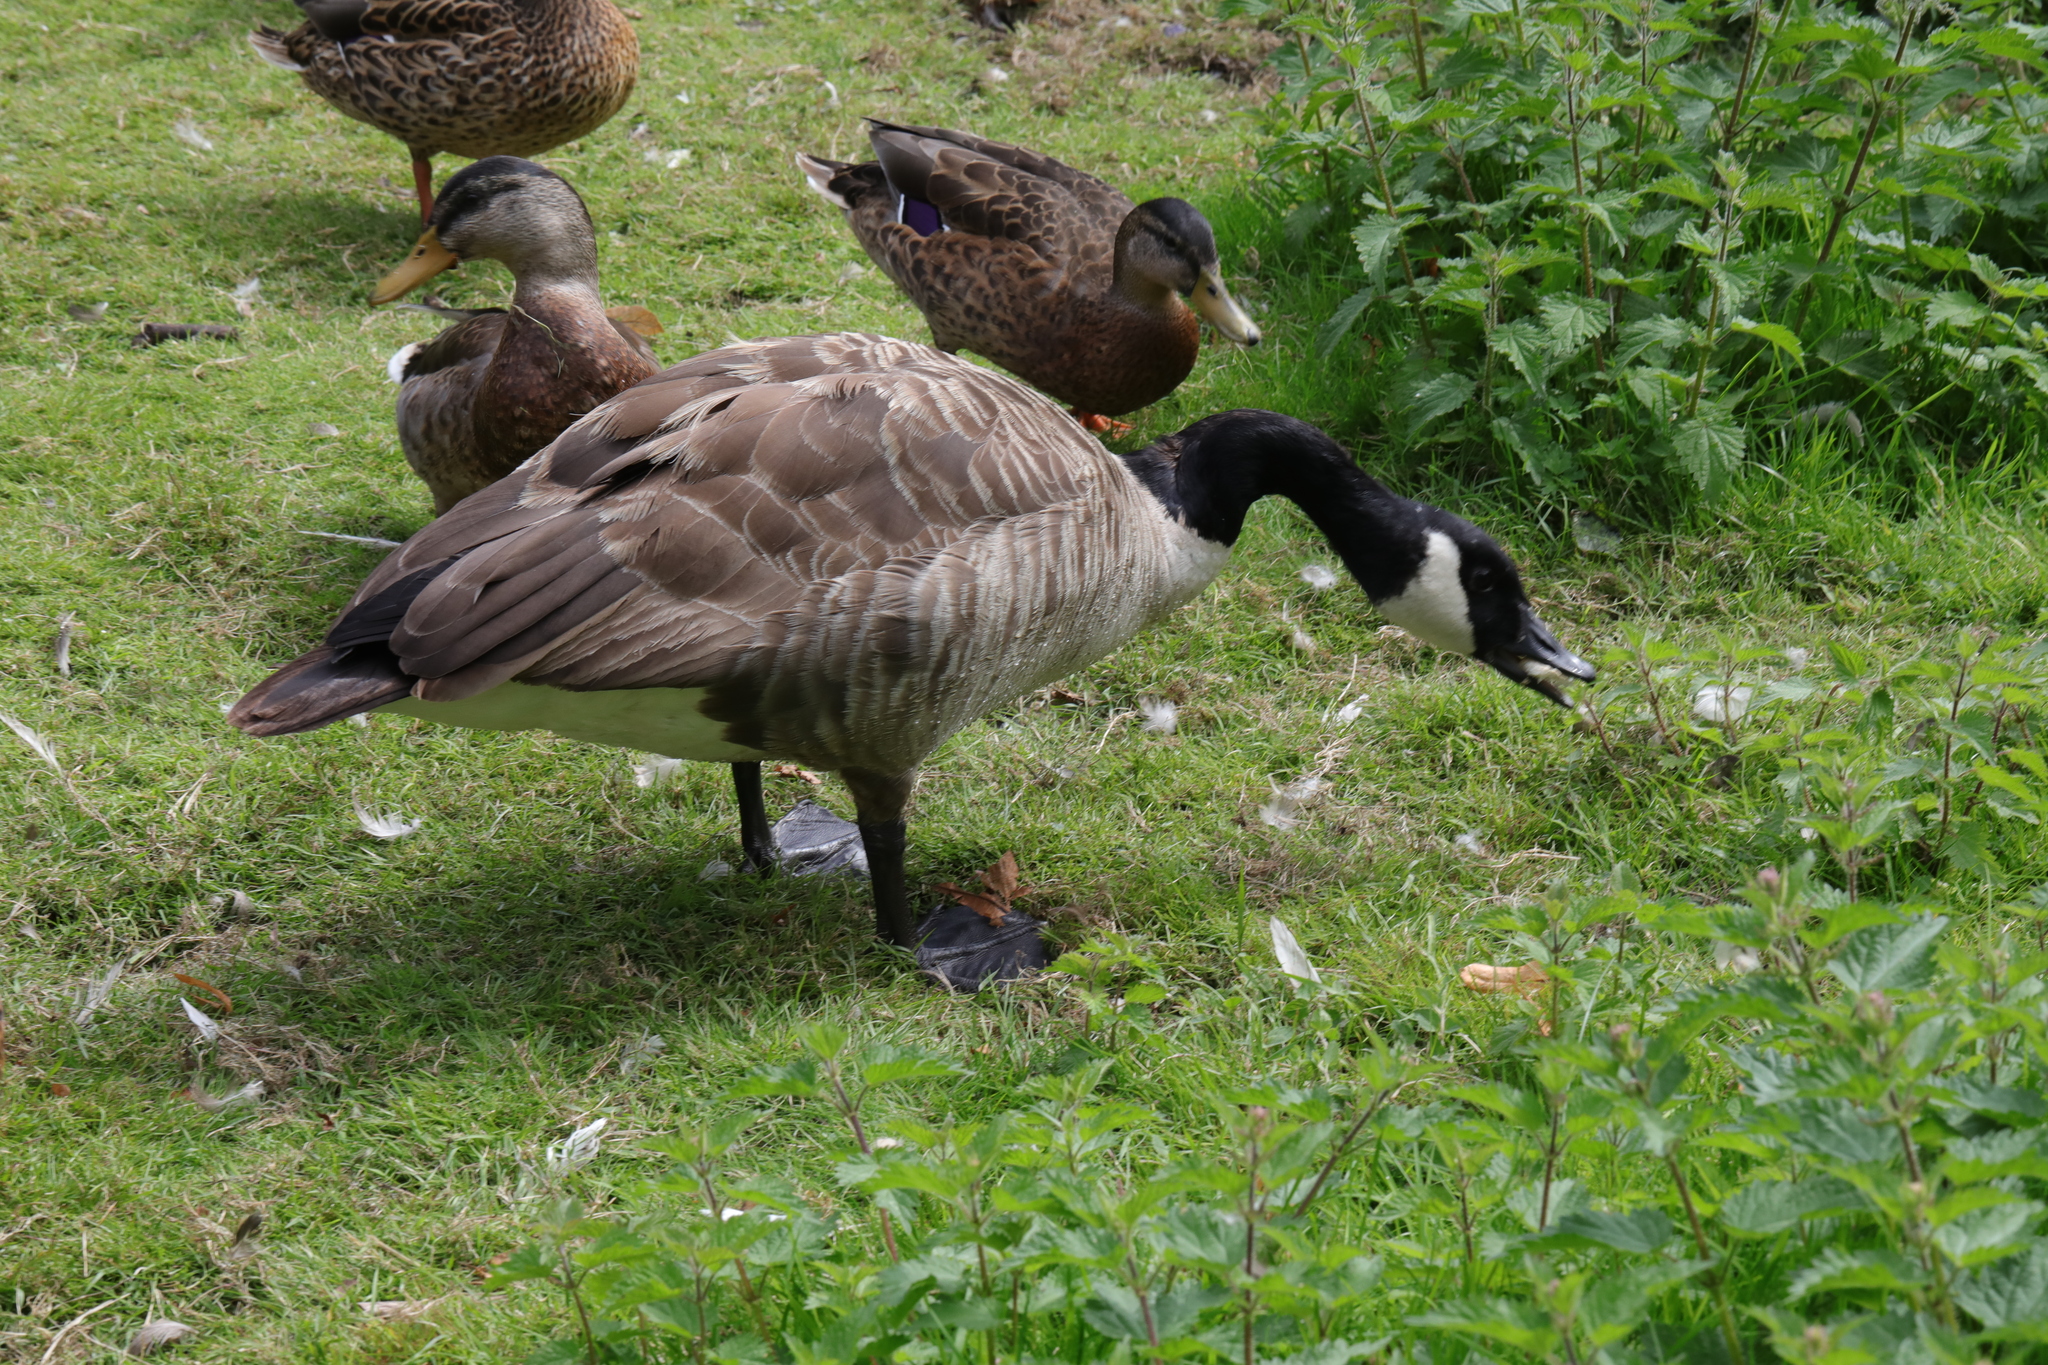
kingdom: Animalia
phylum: Chordata
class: Aves
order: Anseriformes
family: Anatidae
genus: Branta
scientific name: Branta canadensis
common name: Canada goose
